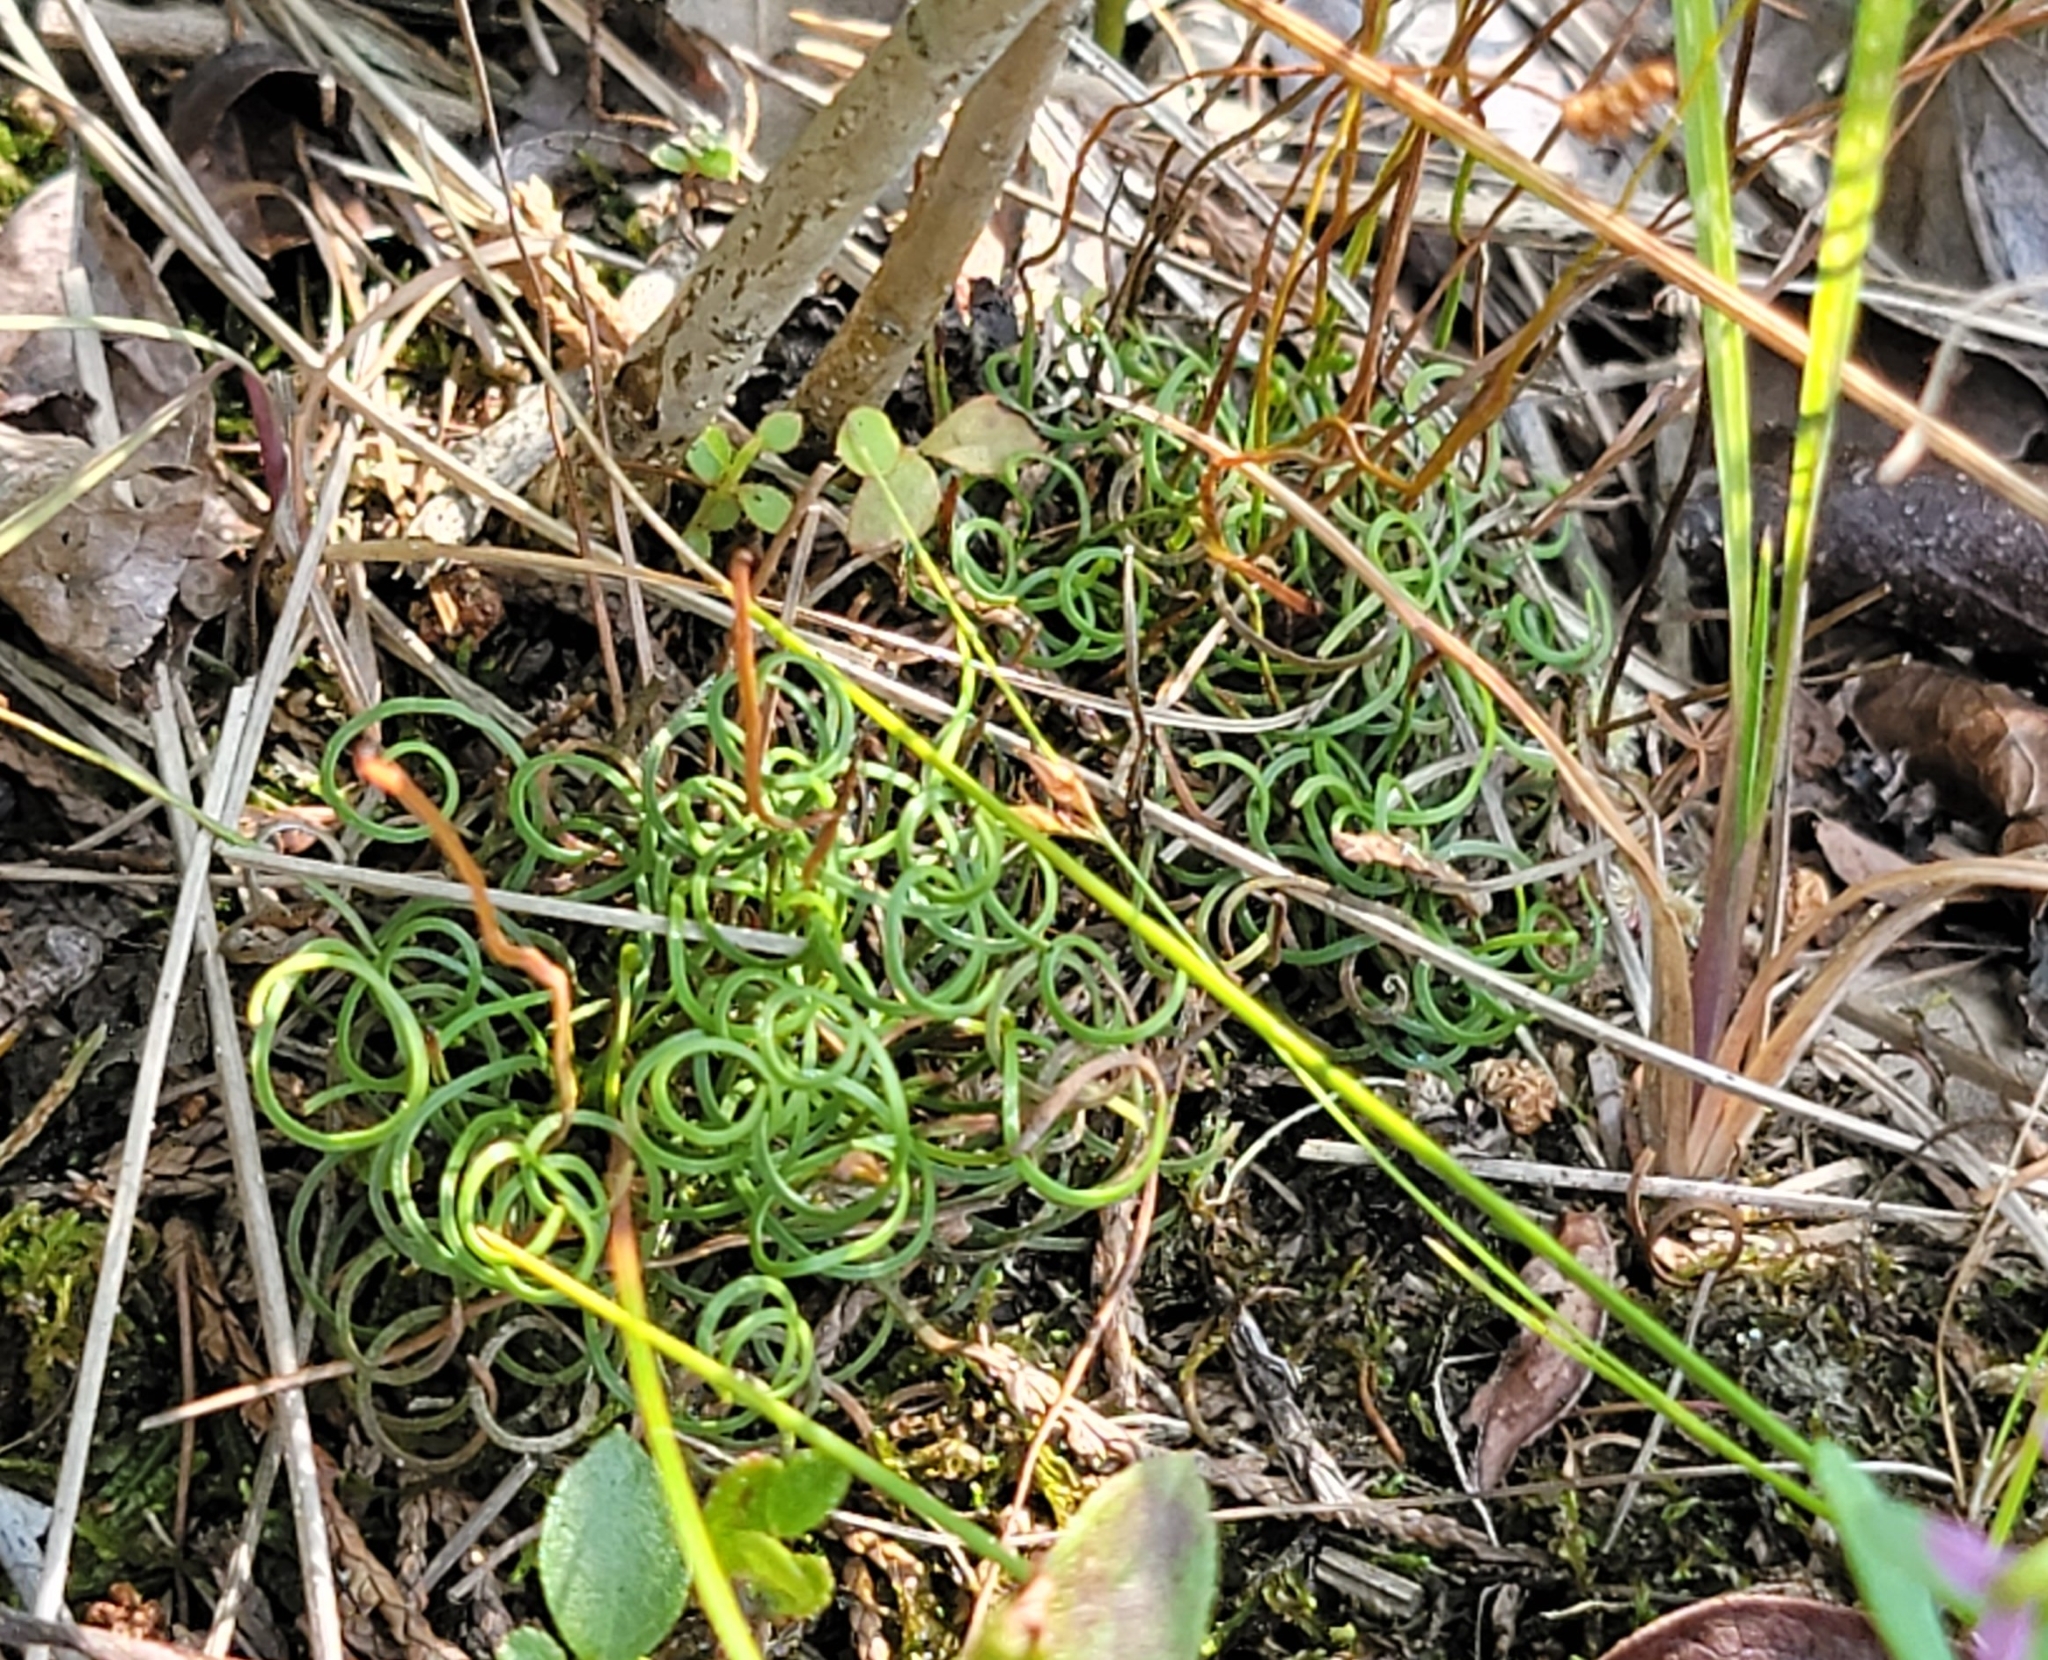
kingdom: Plantae
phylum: Tracheophyta
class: Polypodiopsida
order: Schizaeales
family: Schizaeaceae
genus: Schizaea
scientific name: Schizaea pusilla
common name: Curly-grass fern
